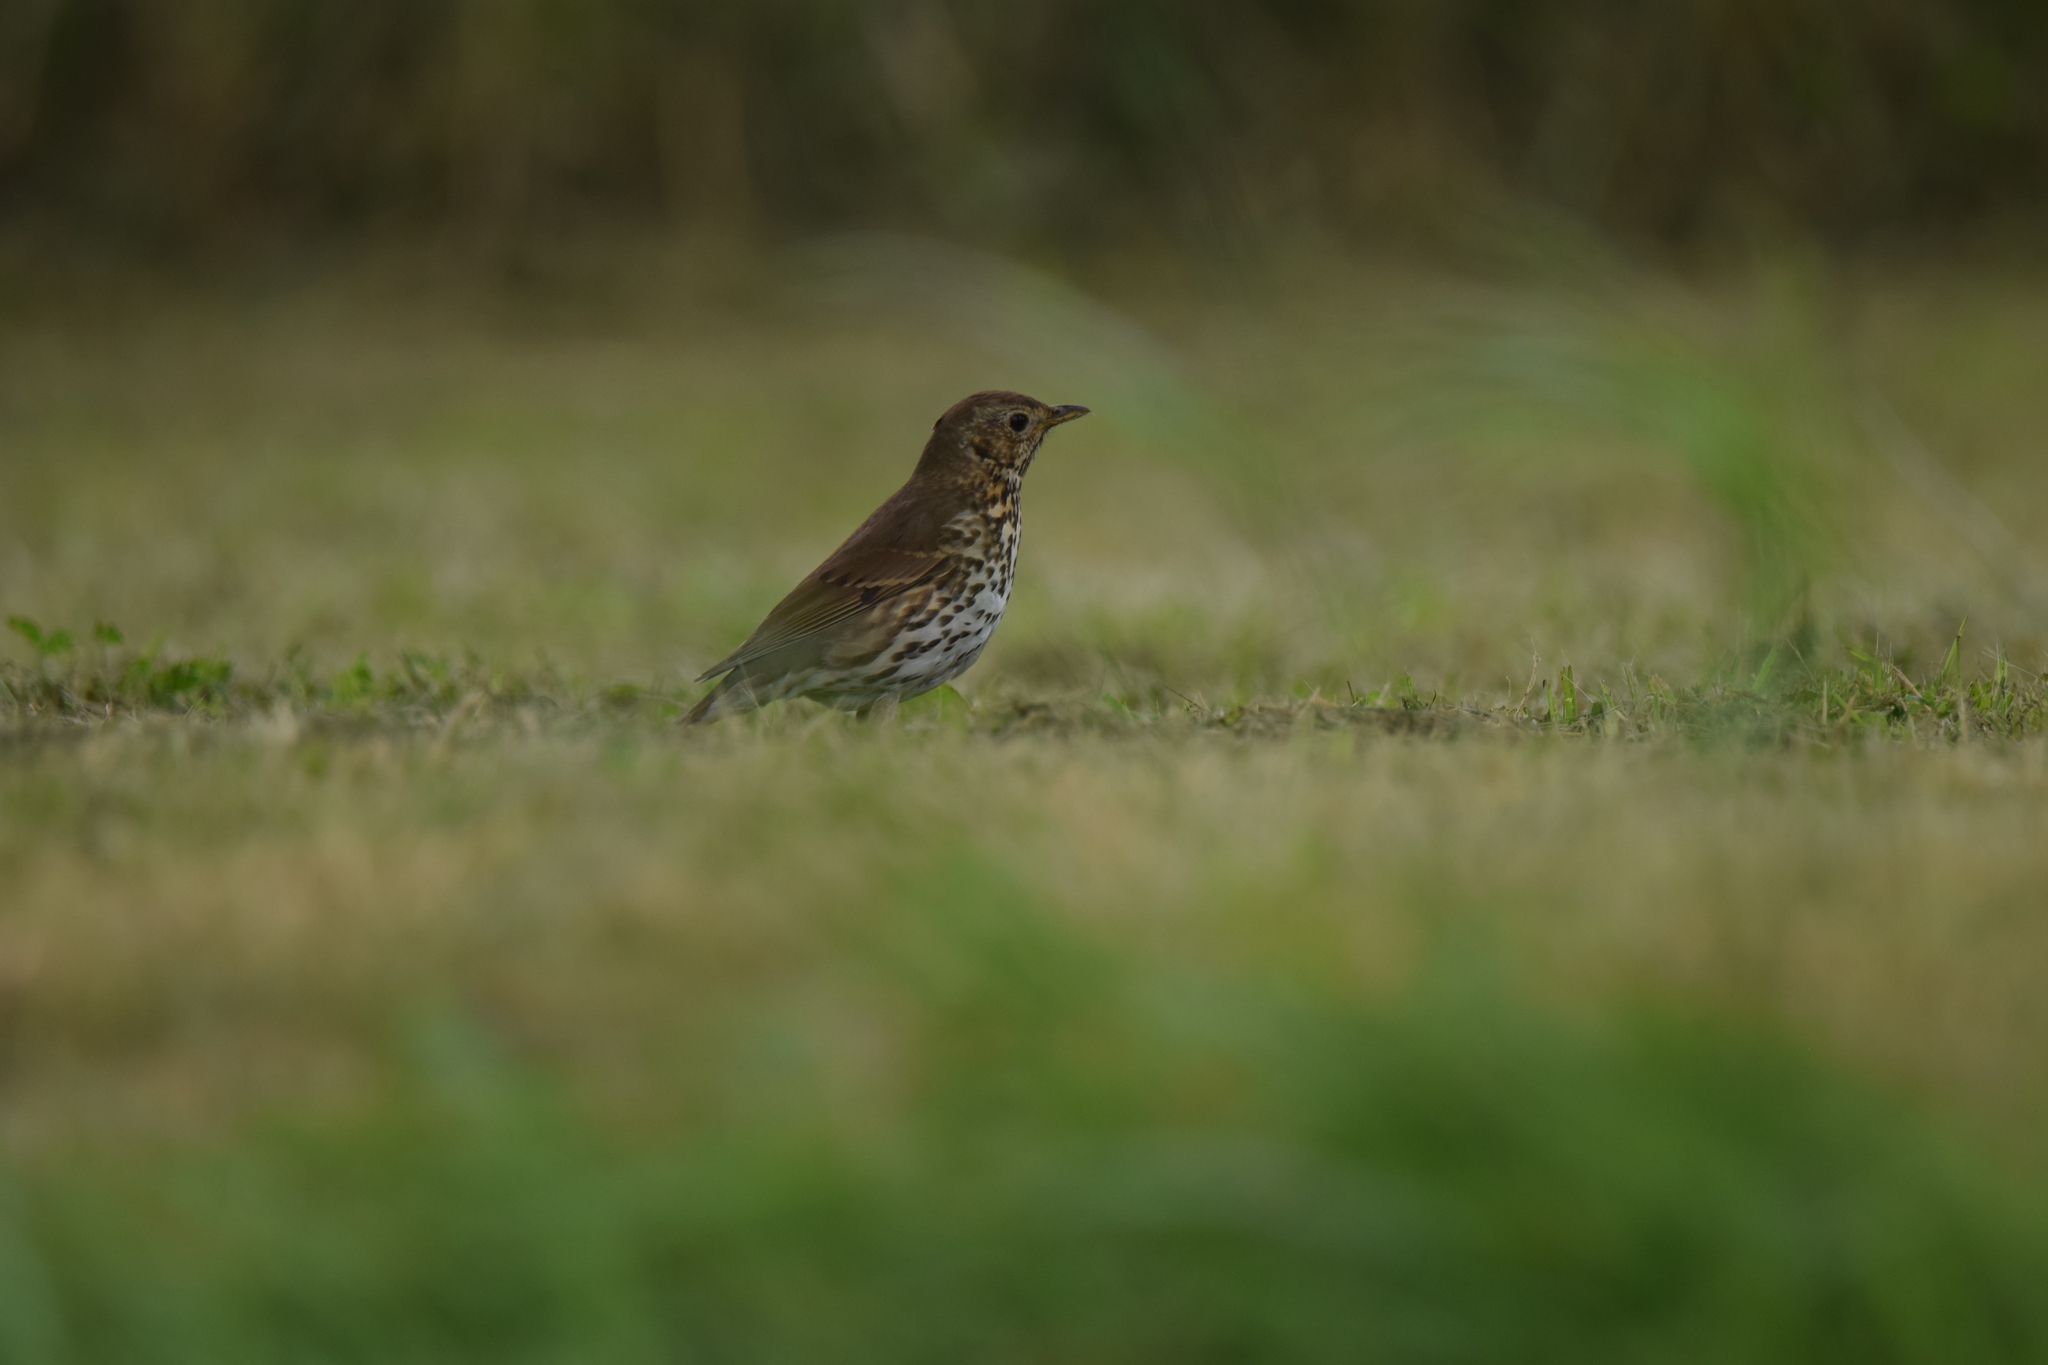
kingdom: Animalia
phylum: Chordata
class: Aves
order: Passeriformes
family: Turdidae
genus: Turdus
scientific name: Turdus philomelos
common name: Song thrush
